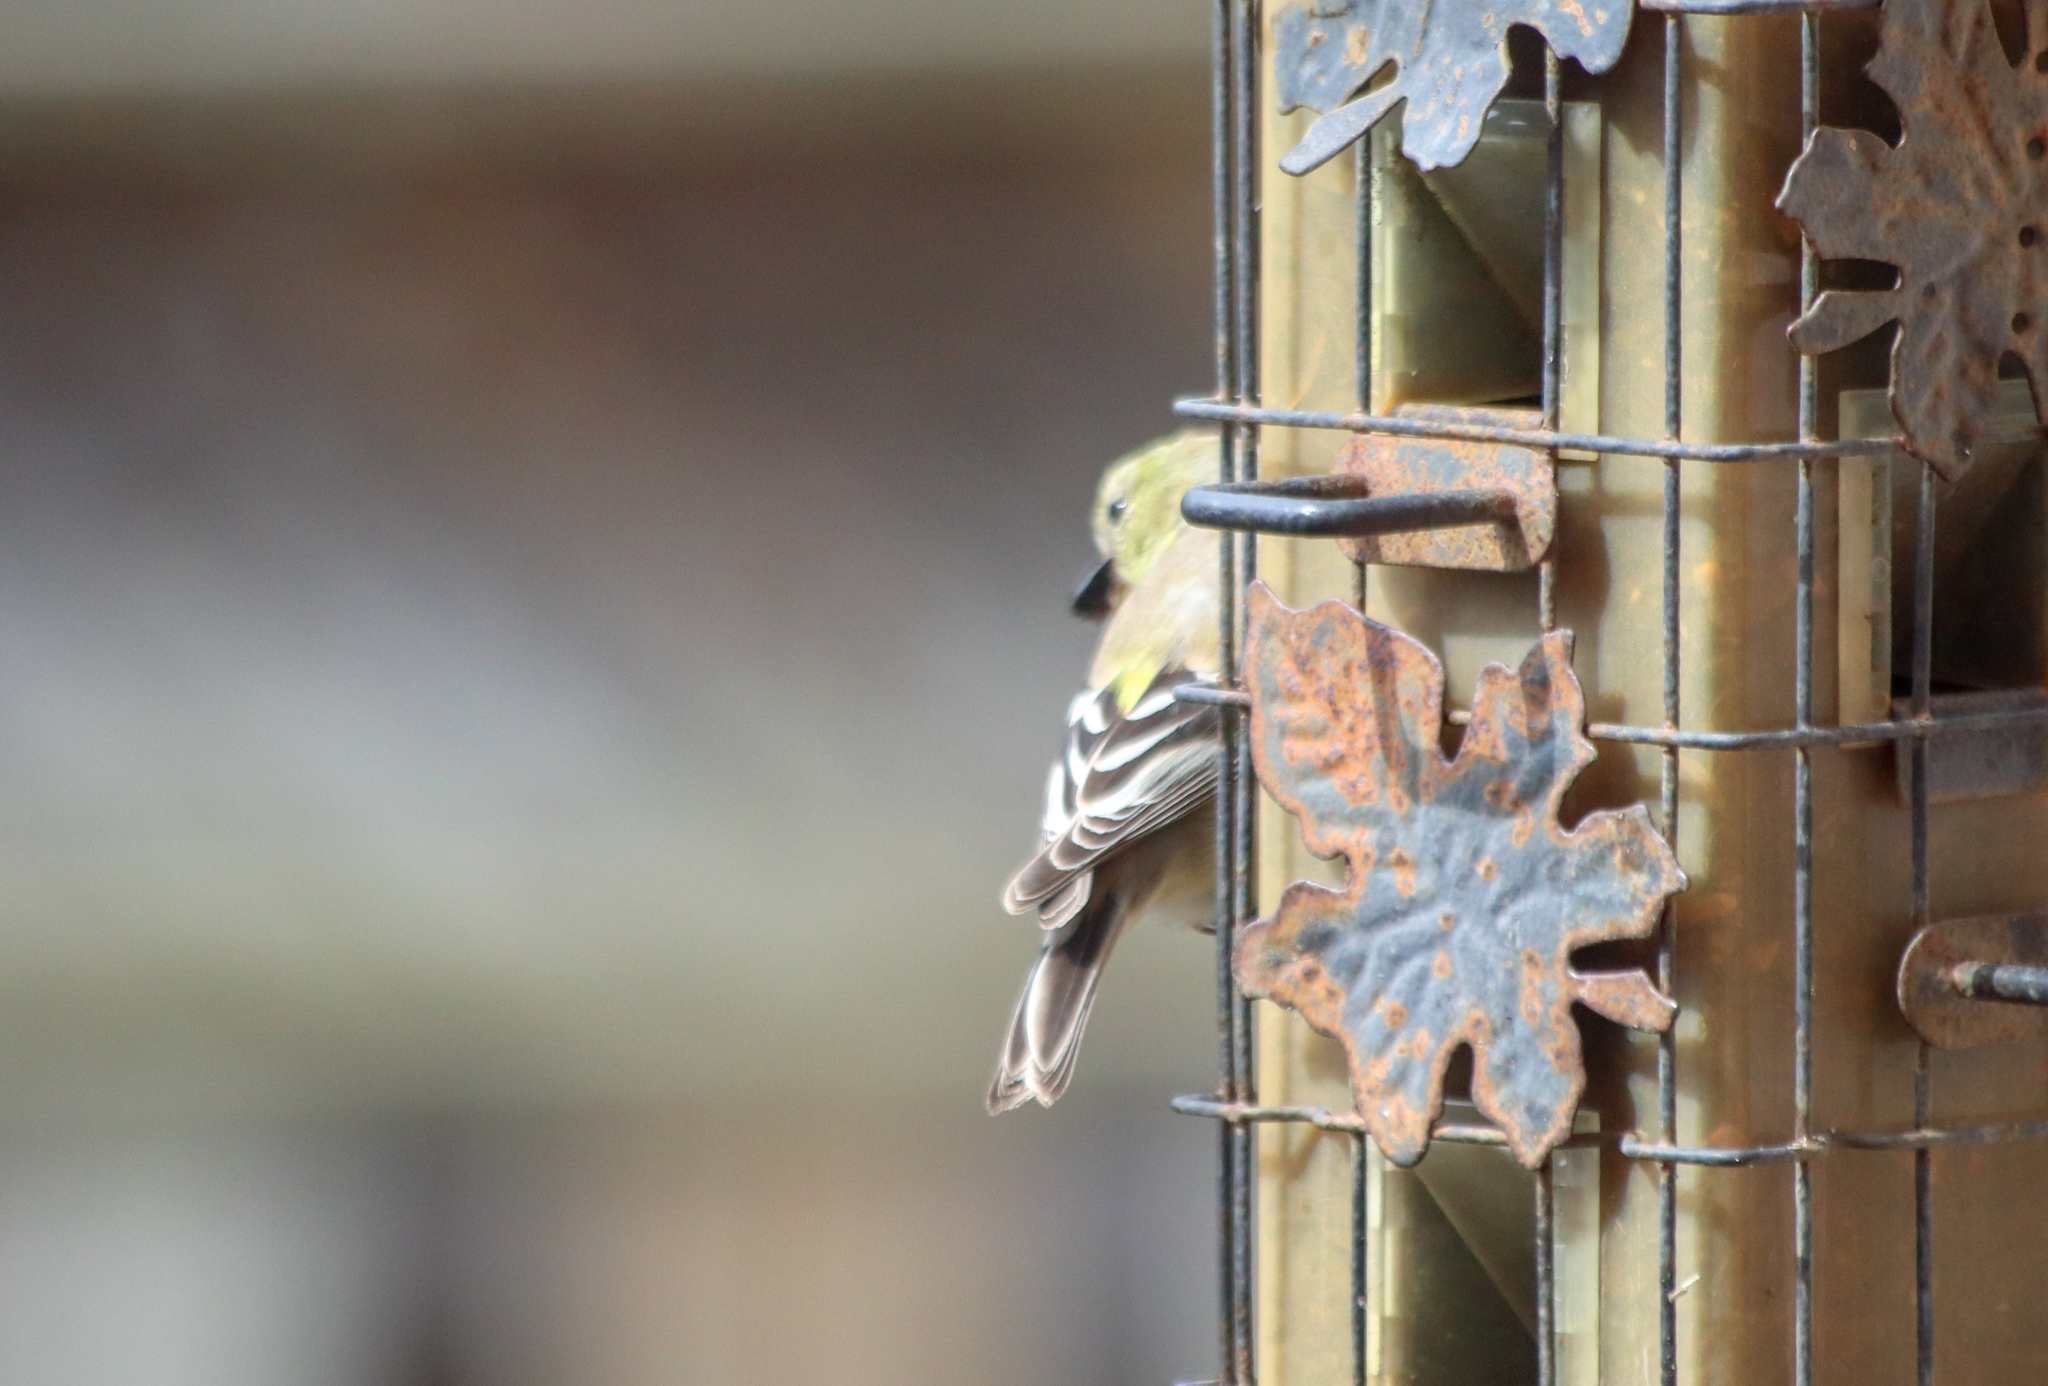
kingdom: Animalia
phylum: Chordata
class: Aves
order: Passeriformes
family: Fringillidae
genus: Spinus
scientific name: Spinus tristis
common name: American goldfinch
